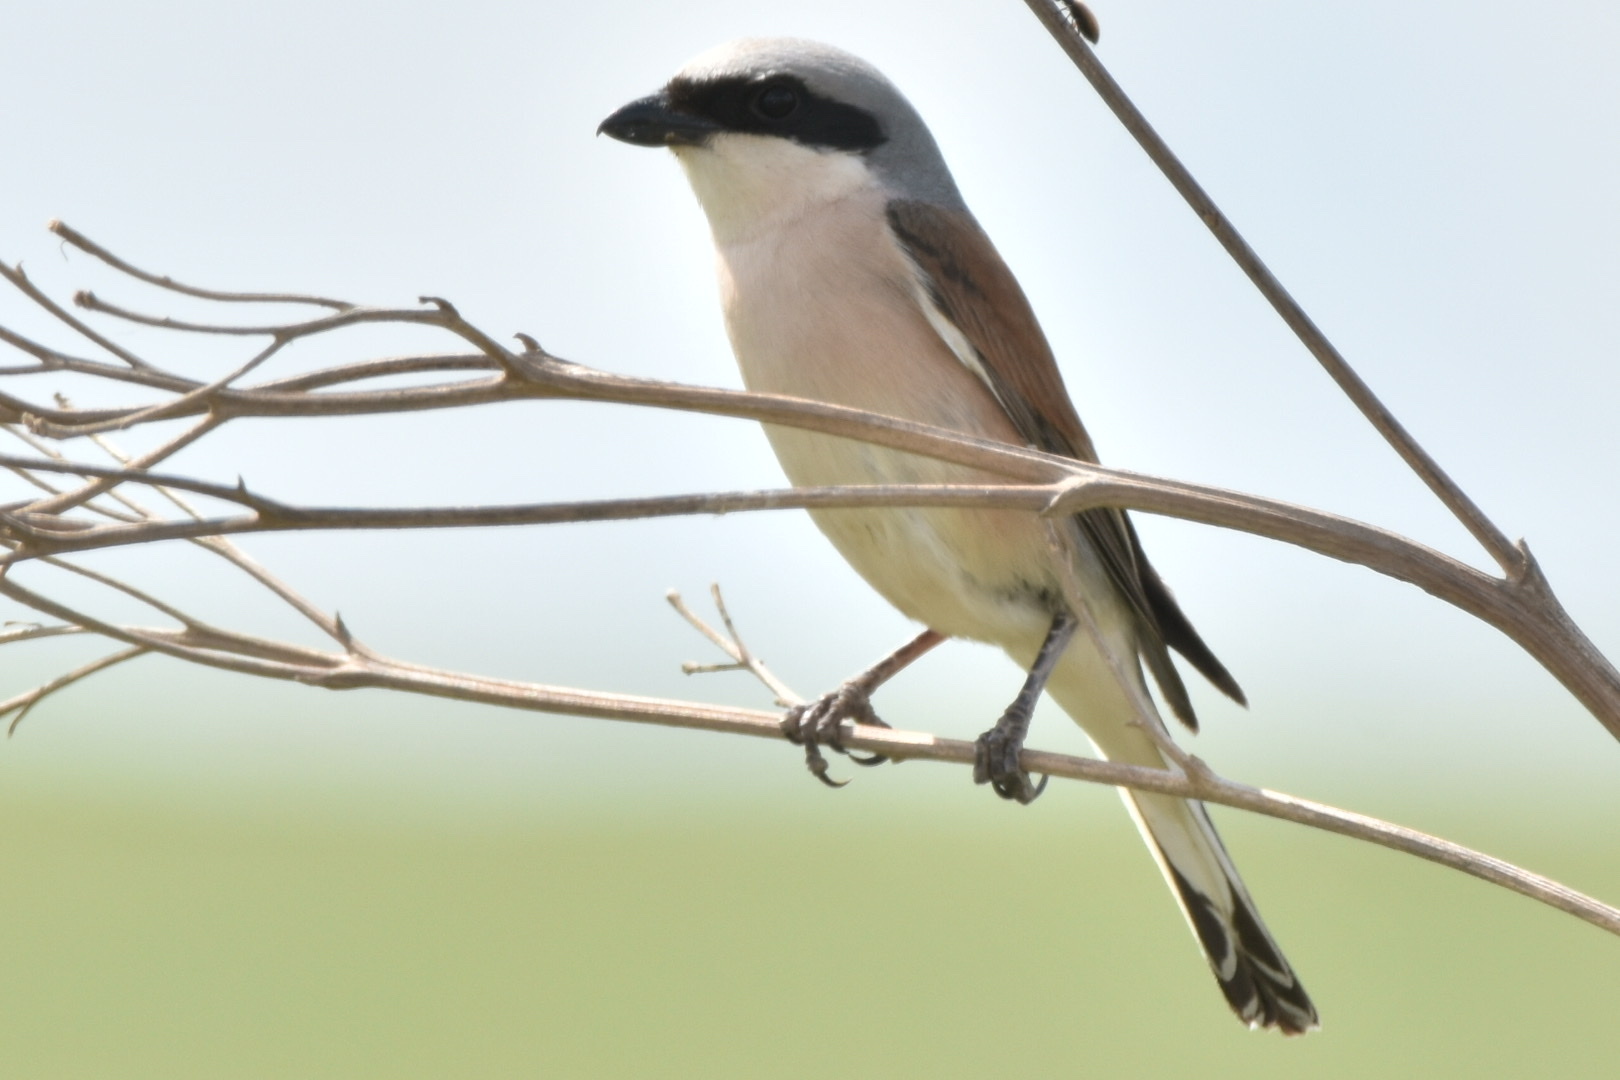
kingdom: Animalia
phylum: Chordata
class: Aves
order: Passeriformes
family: Laniidae
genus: Lanius
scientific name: Lanius collurio
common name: Red-backed shrike
